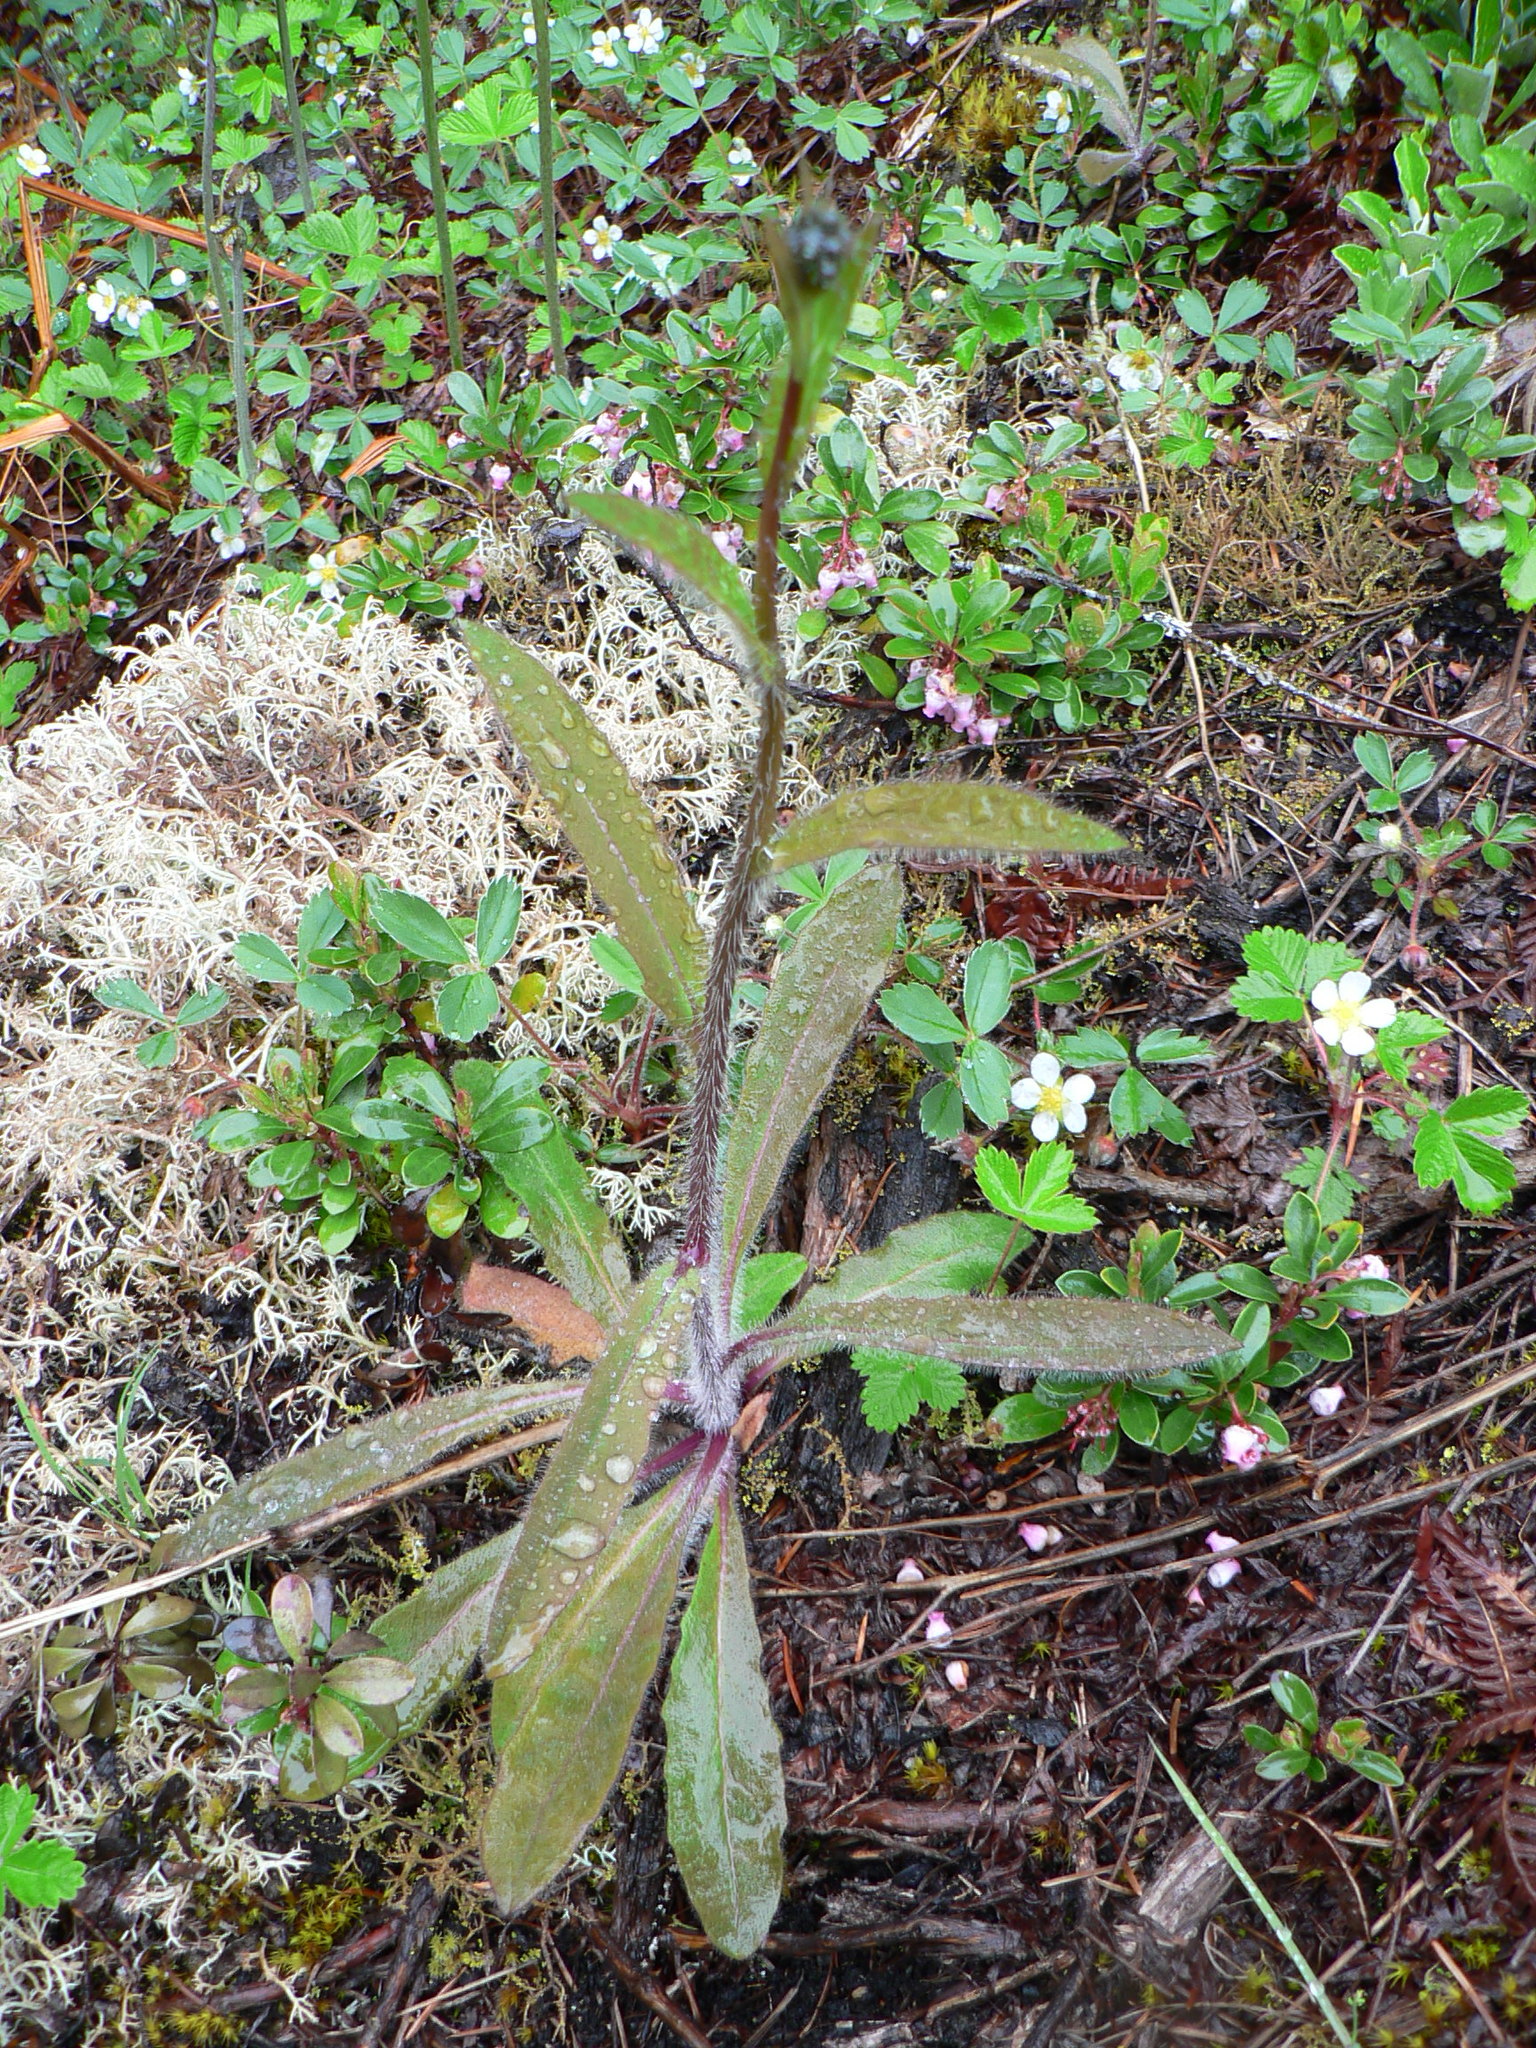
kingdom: Plantae
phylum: Tracheophyta
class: Magnoliopsida
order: Asterales
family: Asteraceae
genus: Hieracium
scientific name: Hieracium albiflorum
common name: White hawkweed
